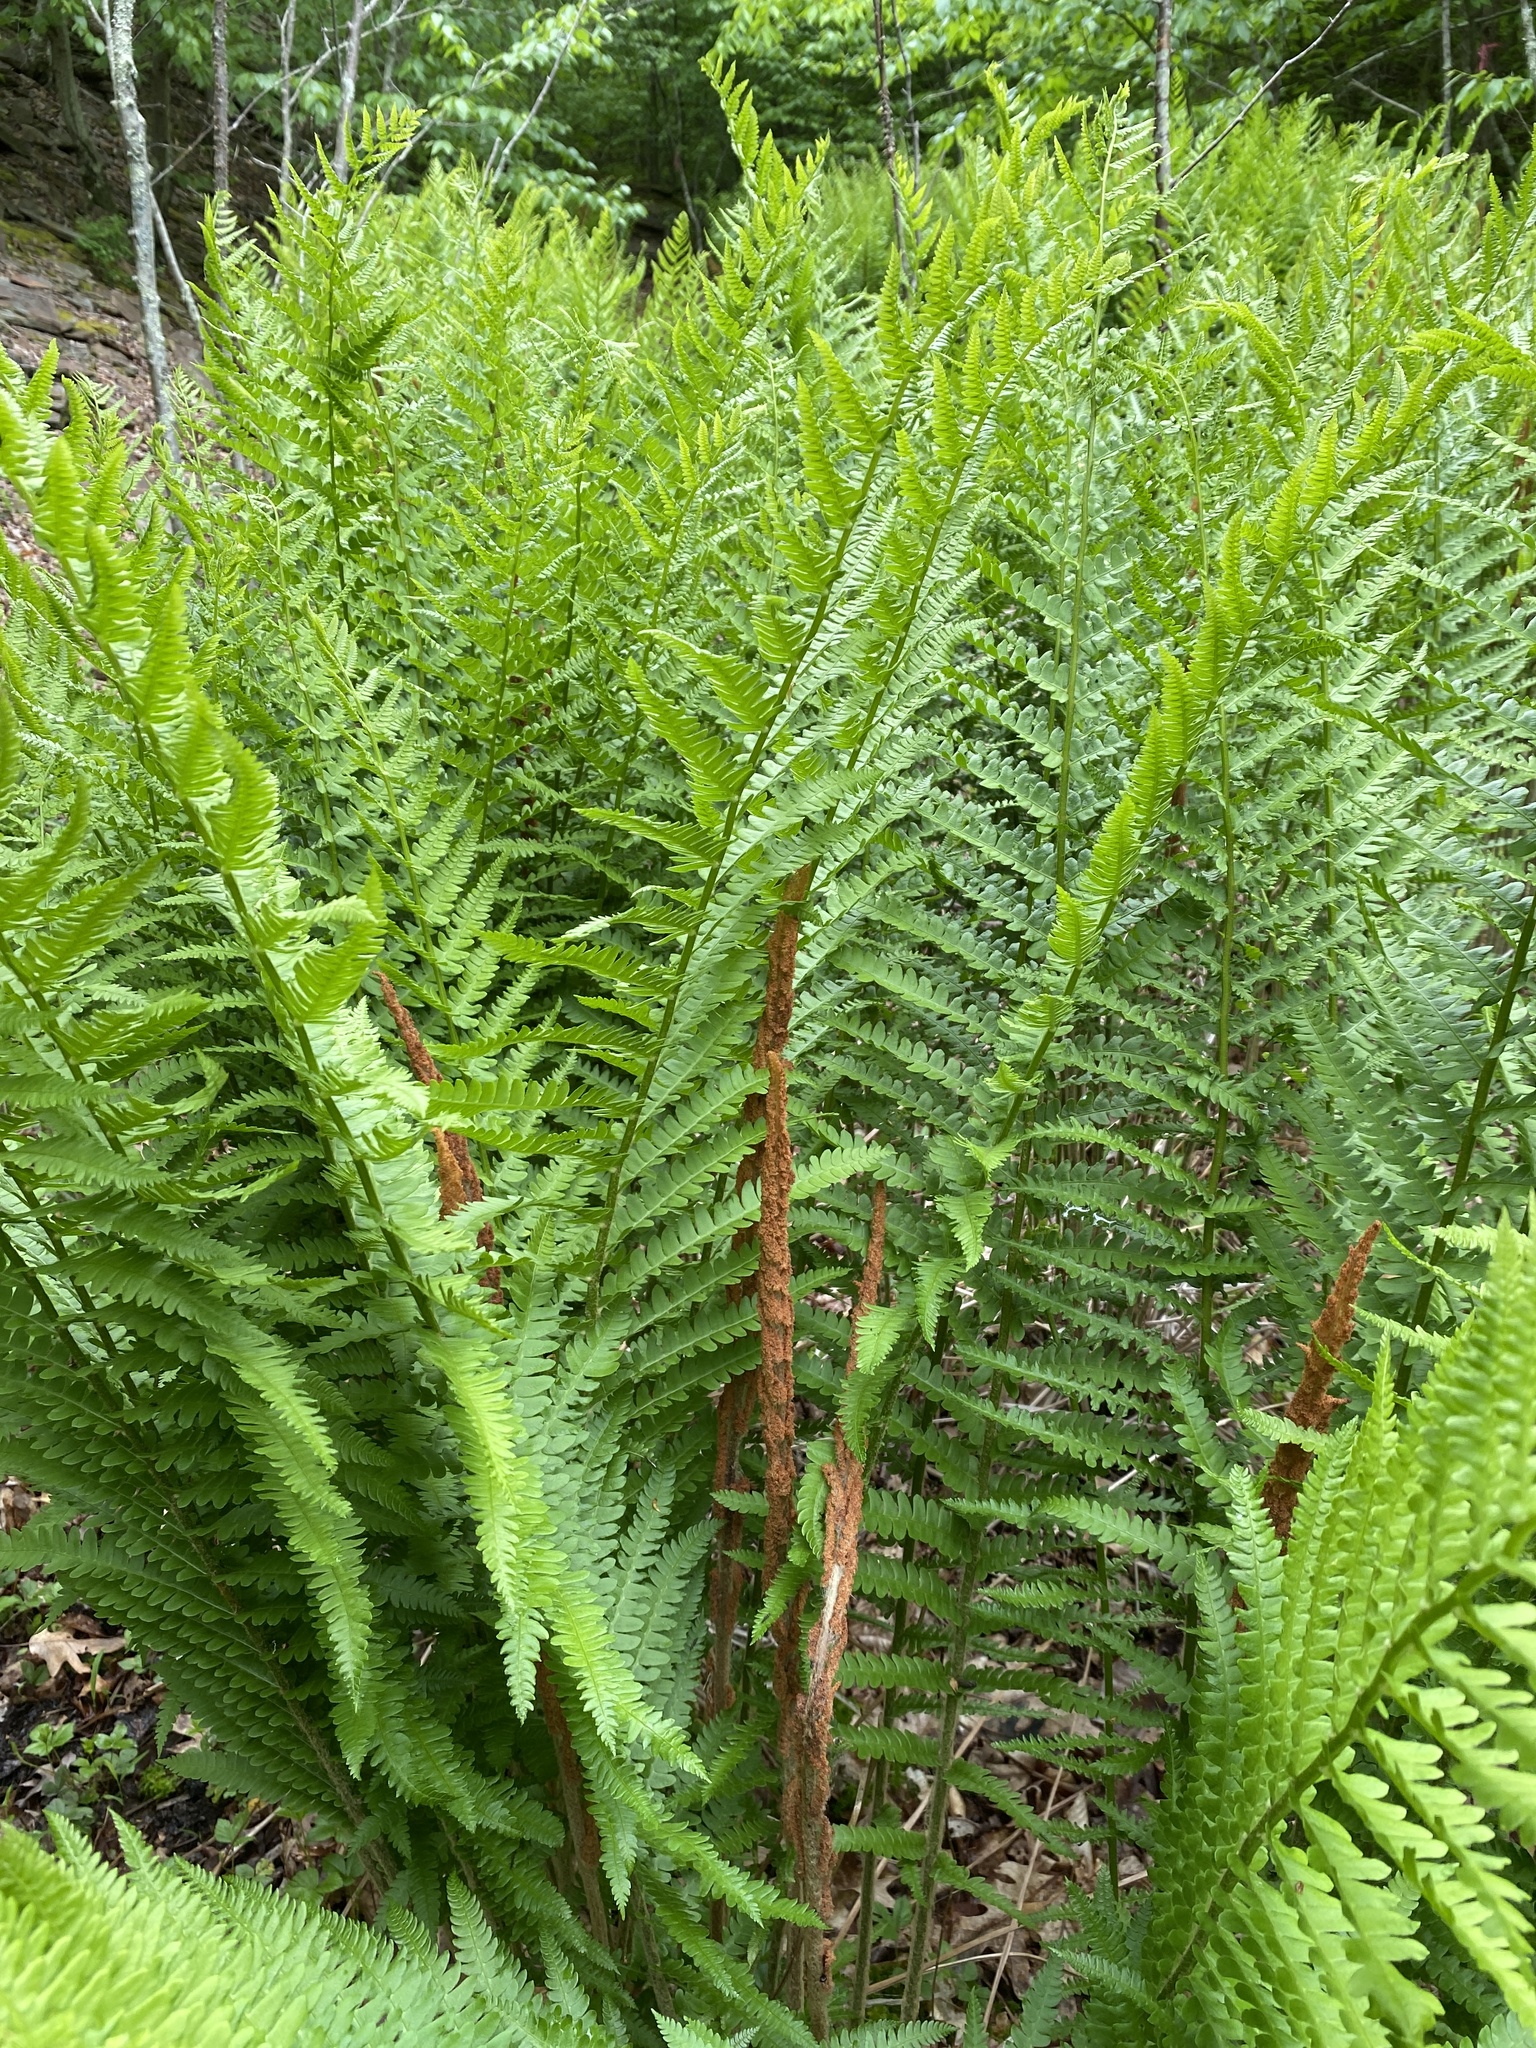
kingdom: Plantae
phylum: Tracheophyta
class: Polypodiopsida
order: Osmundales
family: Osmundaceae
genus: Osmundastrum
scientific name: Osmundastrum cinnamomeum
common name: Cinnamon fern
